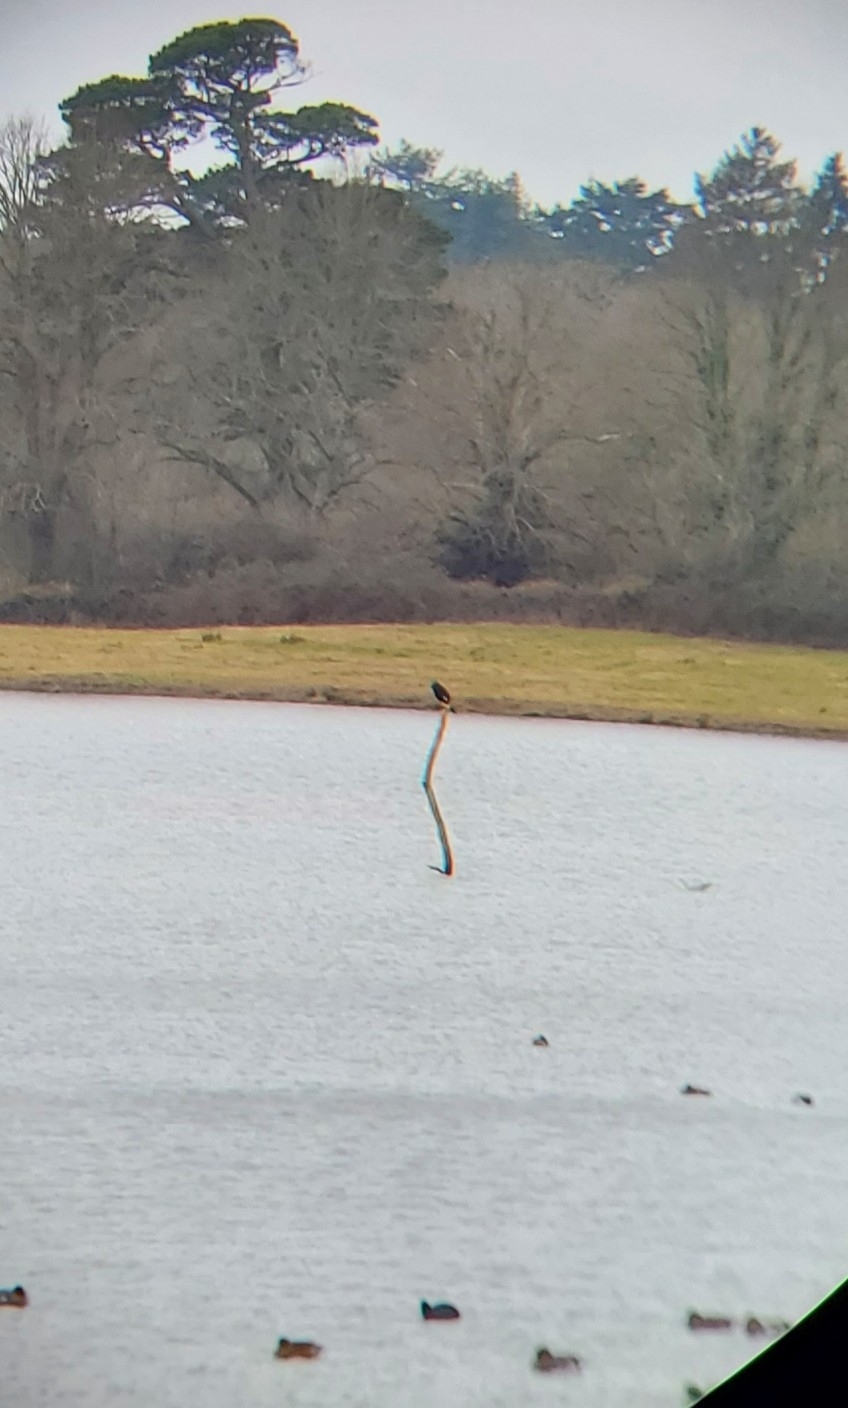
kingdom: Animalia
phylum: Chordata
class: Aves
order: Suliformes
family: Phalacrocoracidae
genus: Phalacrocorax
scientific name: Phalacrocorax carbo
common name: Great cormorant
